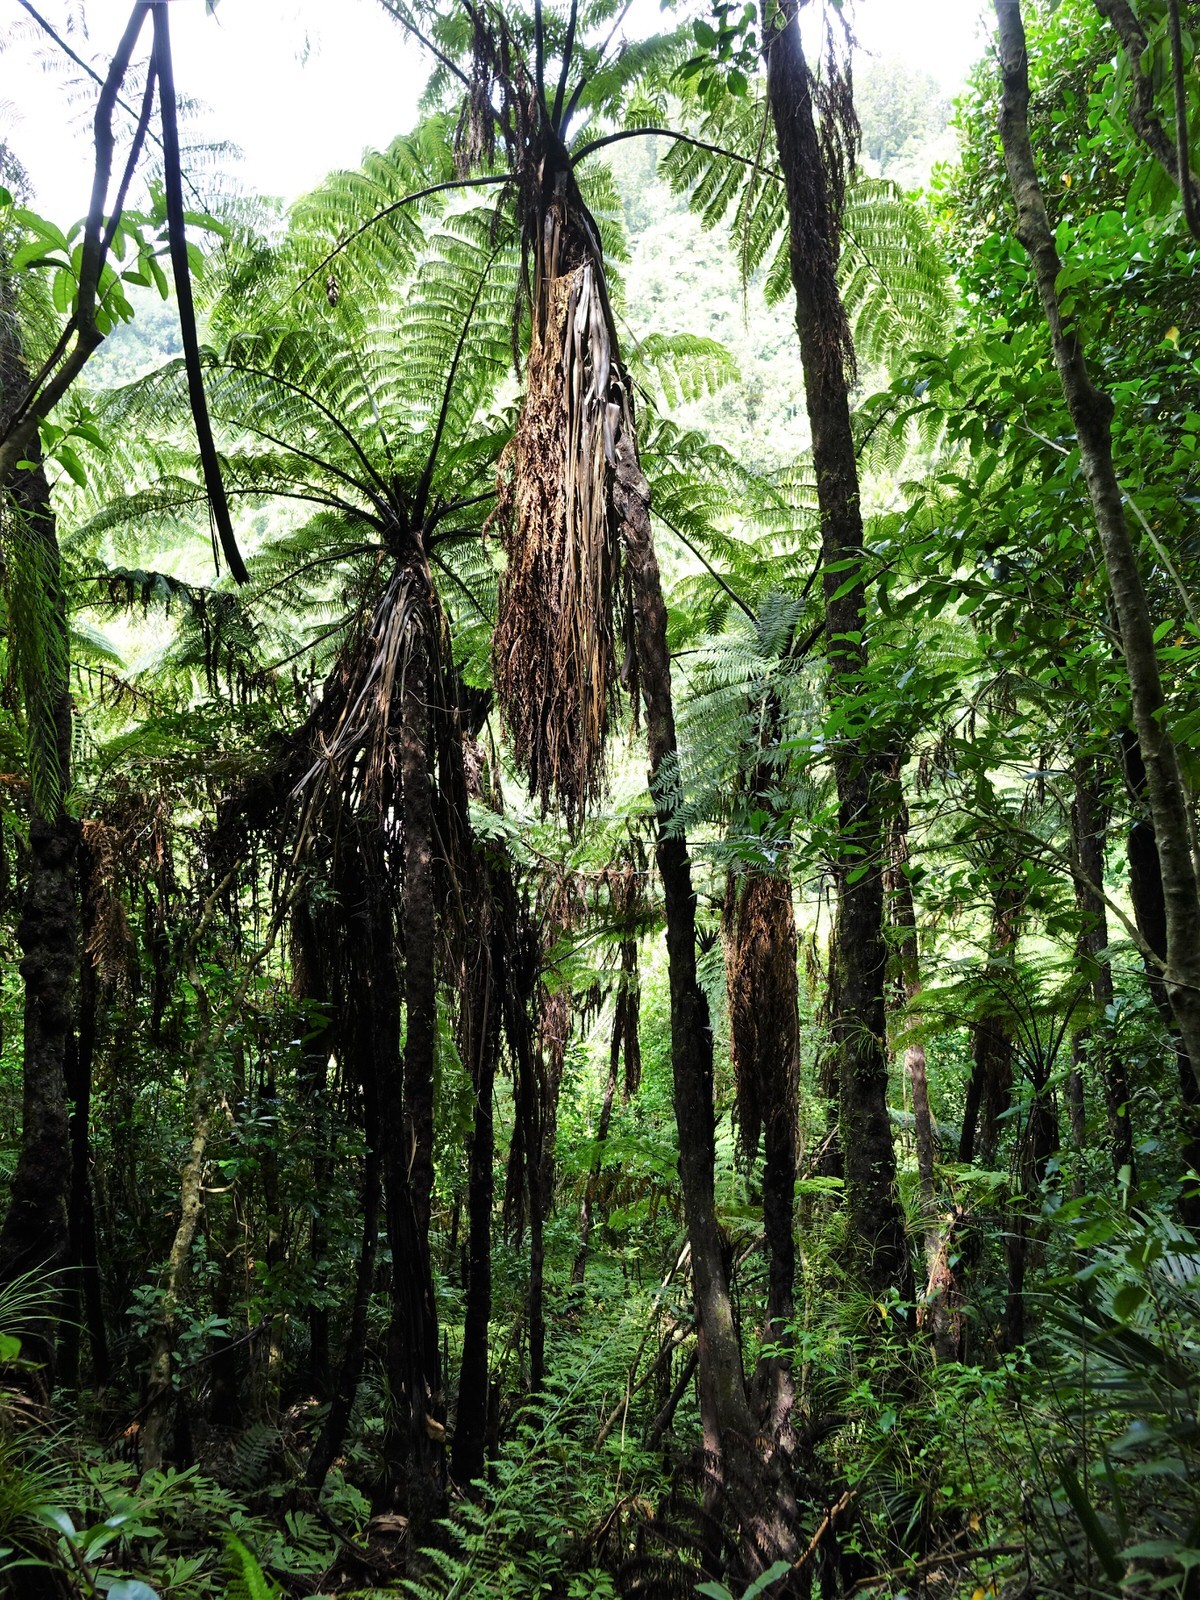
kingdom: Plantae
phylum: Tracheophyta
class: Polypodiopsida
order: Cyatheales
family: Cyatheaceae
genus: Sphaeropteris
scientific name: Sphaeropteris medullaris
